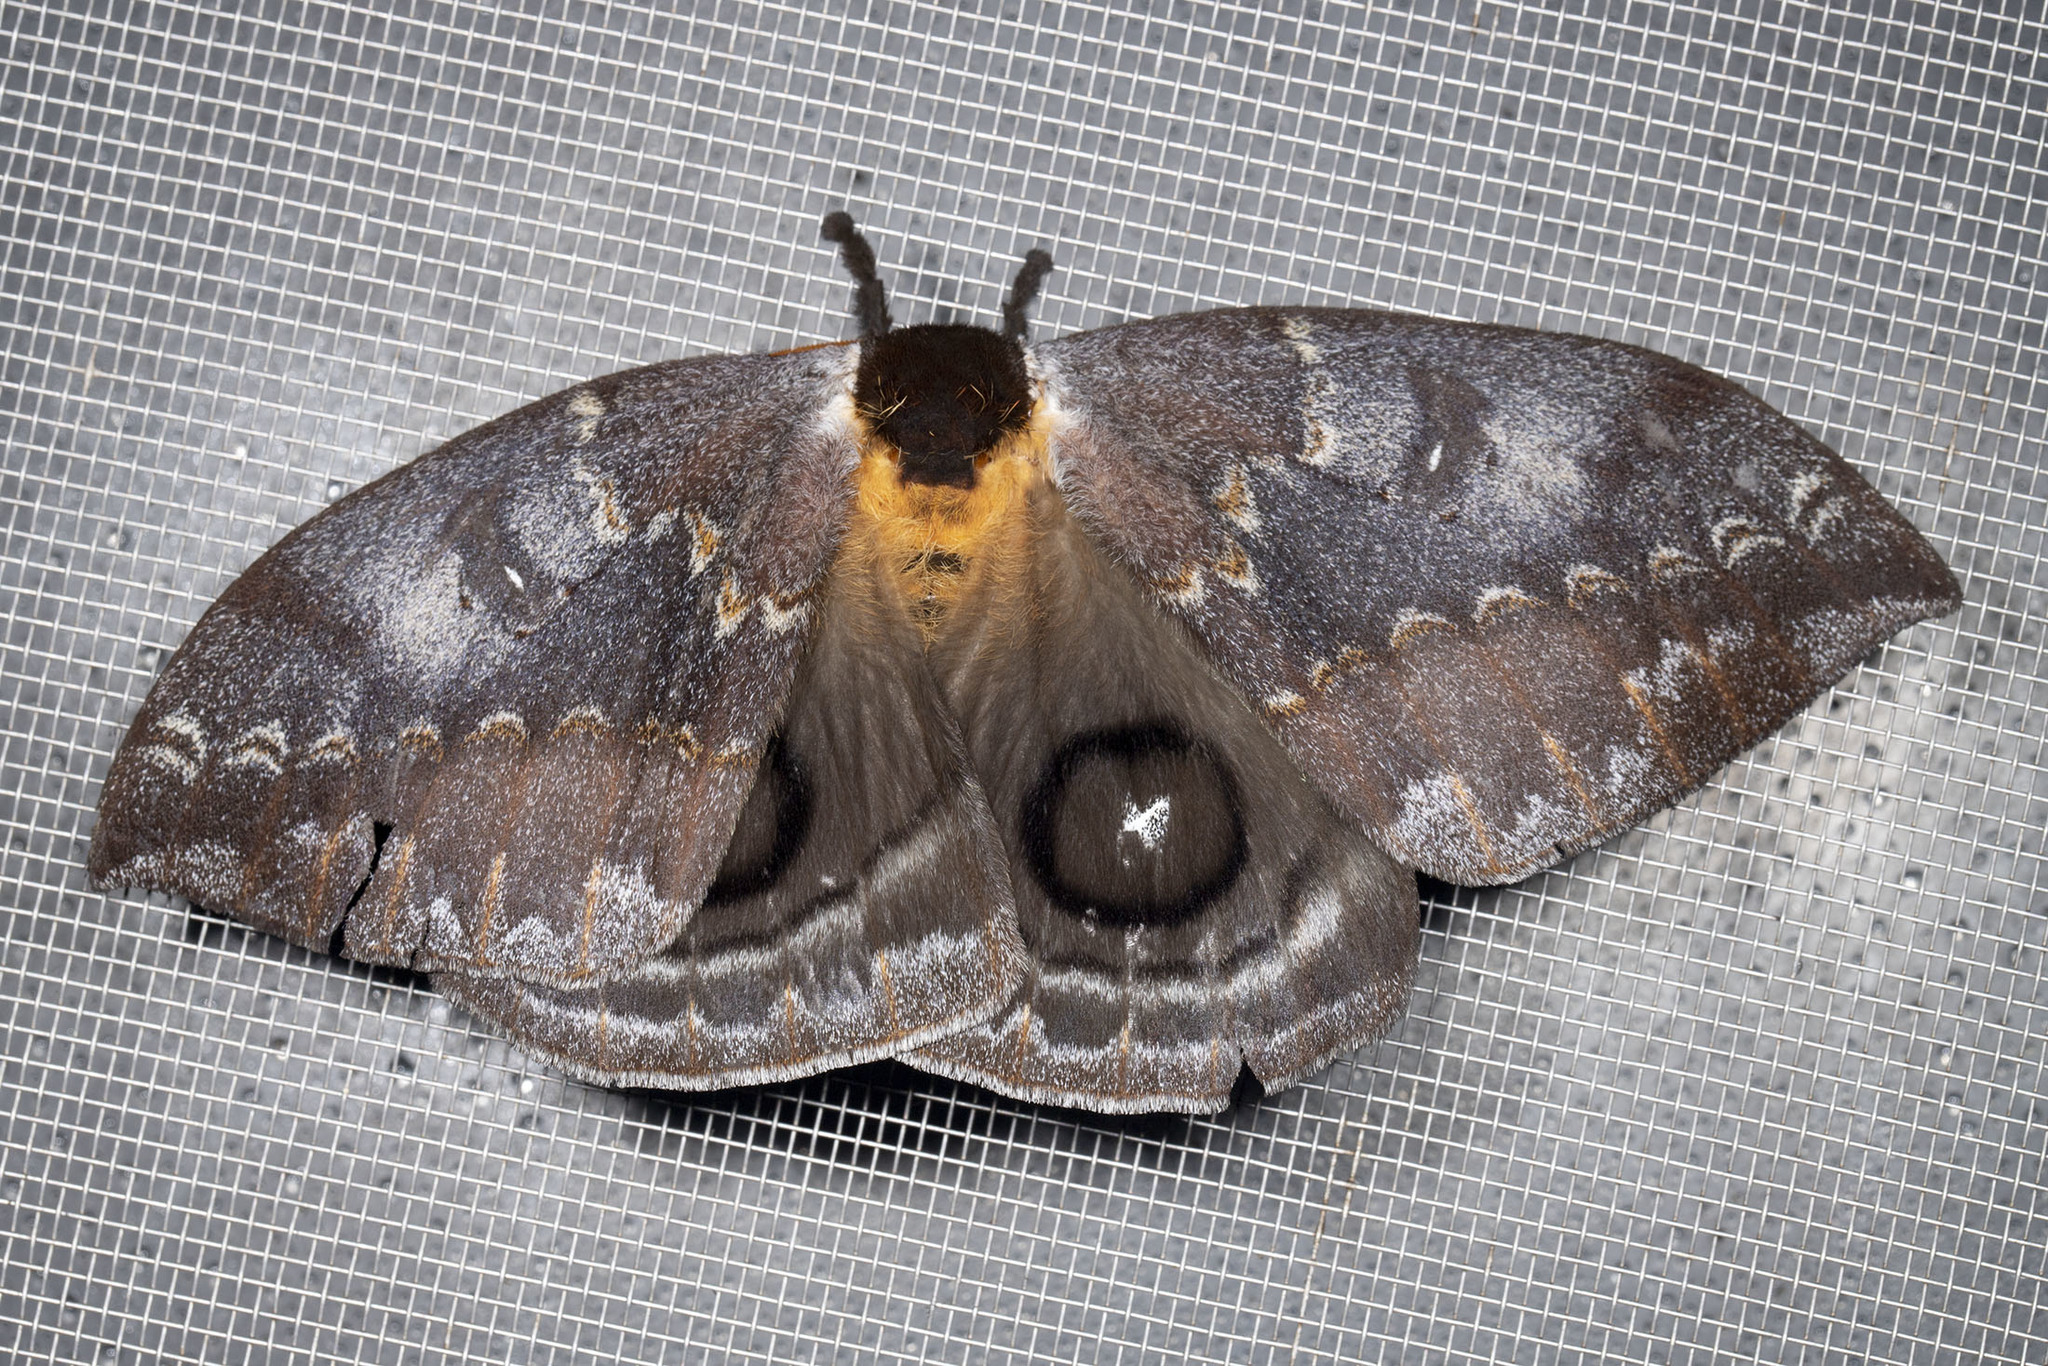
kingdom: Animalia
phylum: Arthropoda
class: Insecta
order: Lepidoptera
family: Saturniidae
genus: Automeris
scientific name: Automeris denticulatus
